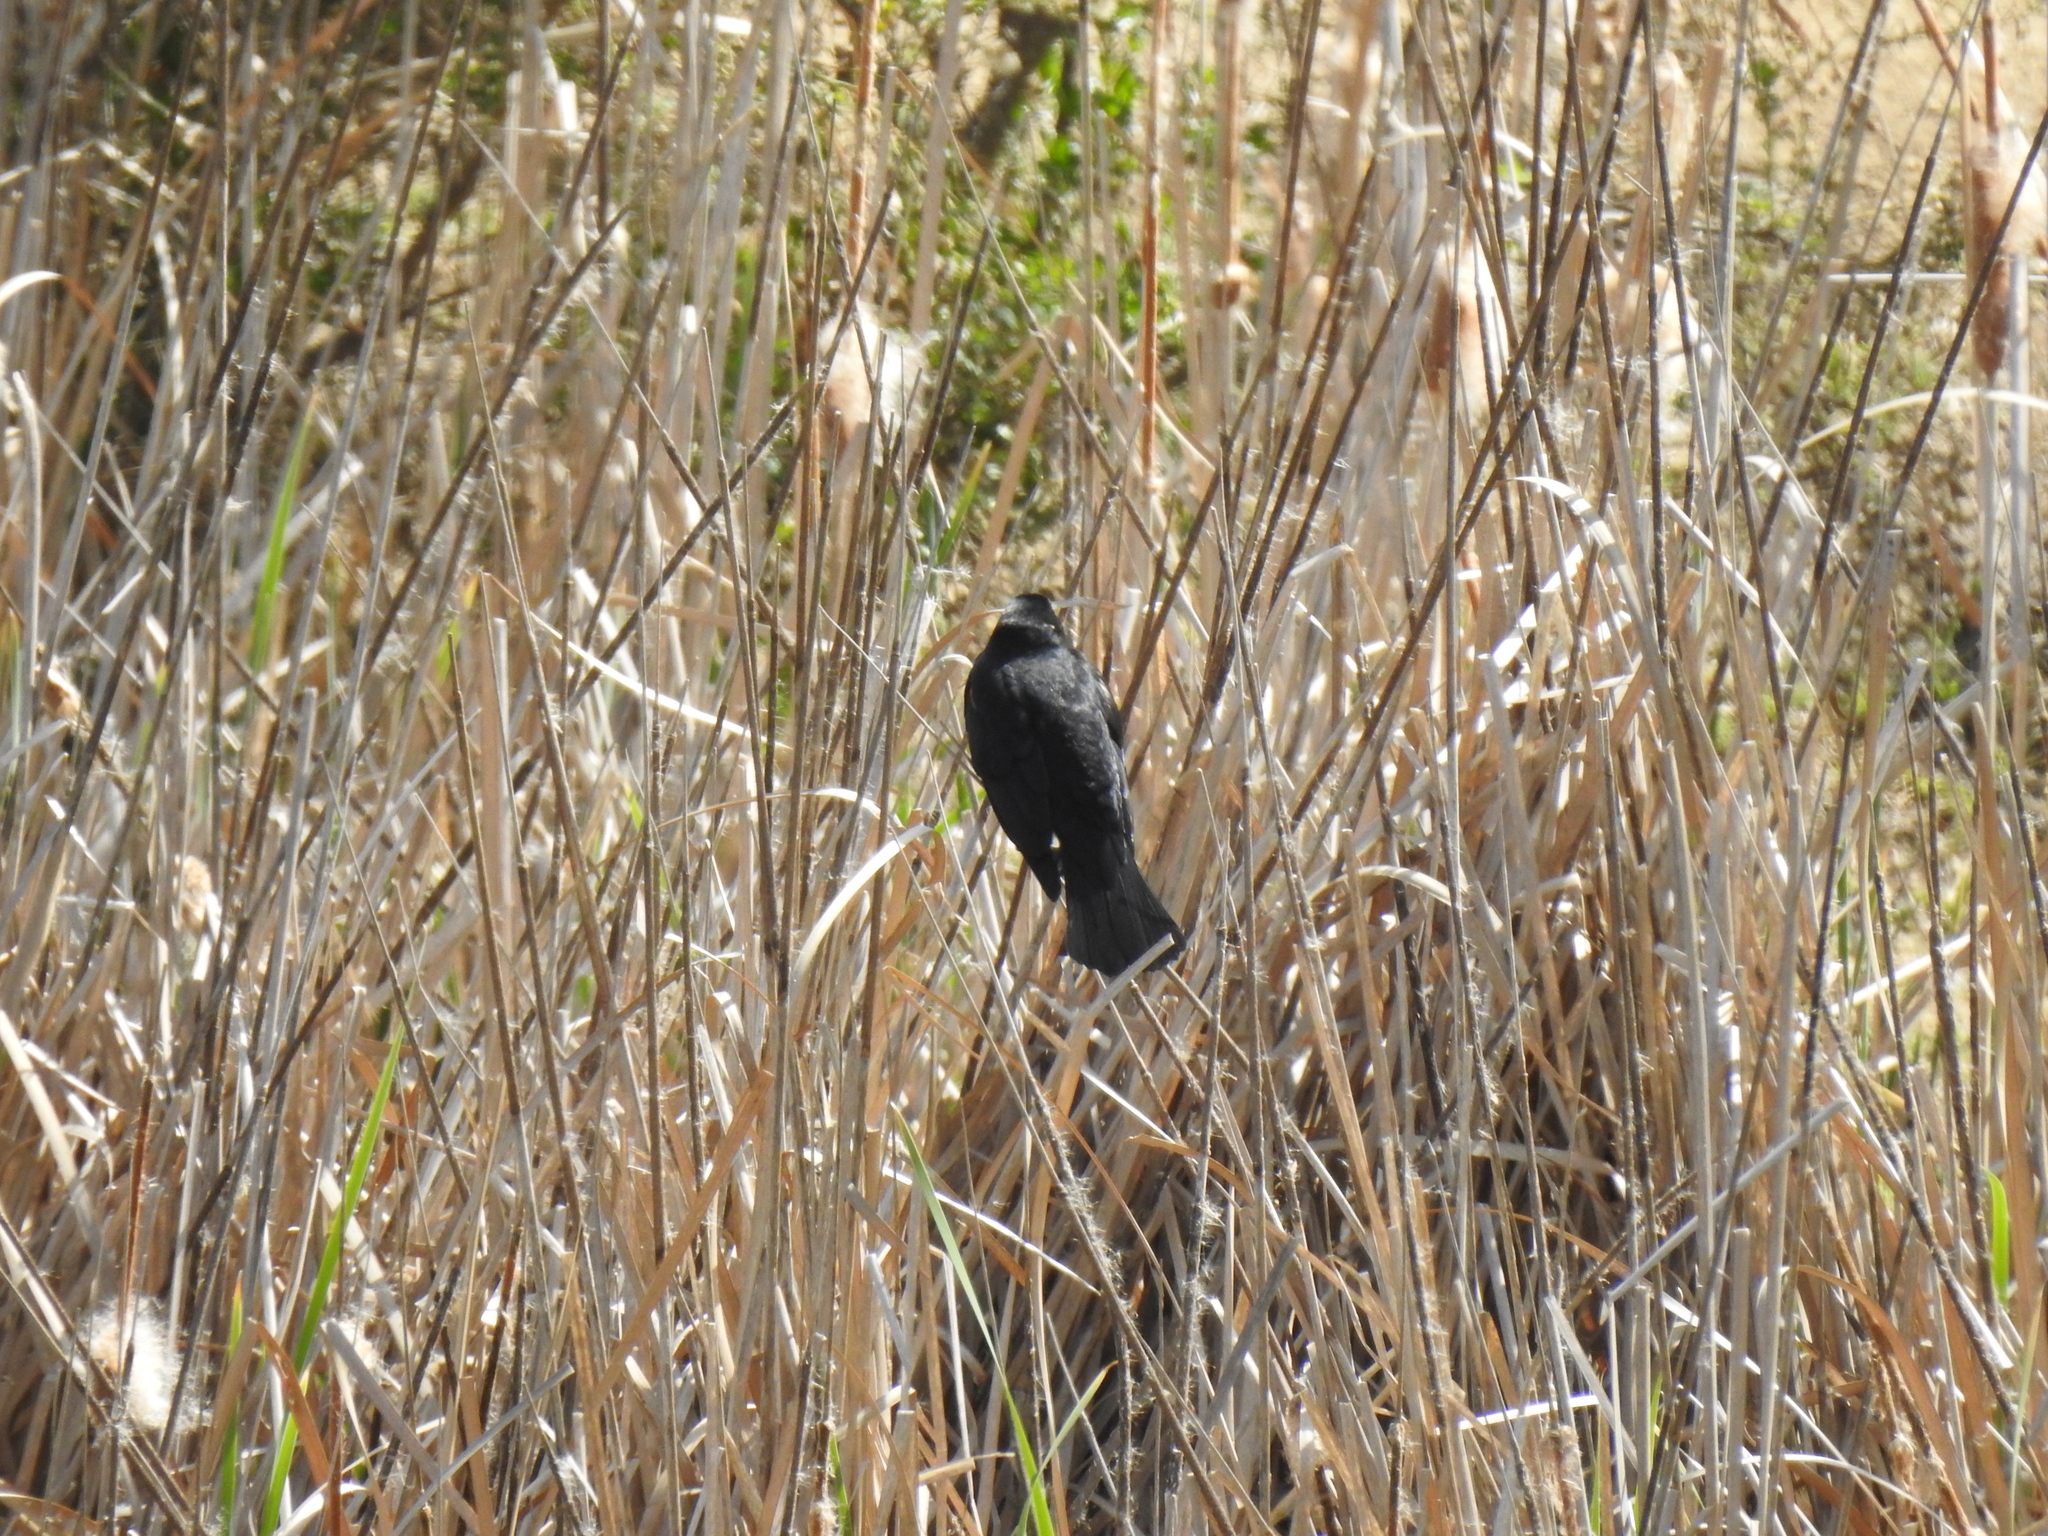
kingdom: Animalia
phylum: Chordata
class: Aves
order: Passeriformes
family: Icteridae
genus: Agelaius
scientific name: Agelaius phoeniceus
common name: Red-winged blackbird
